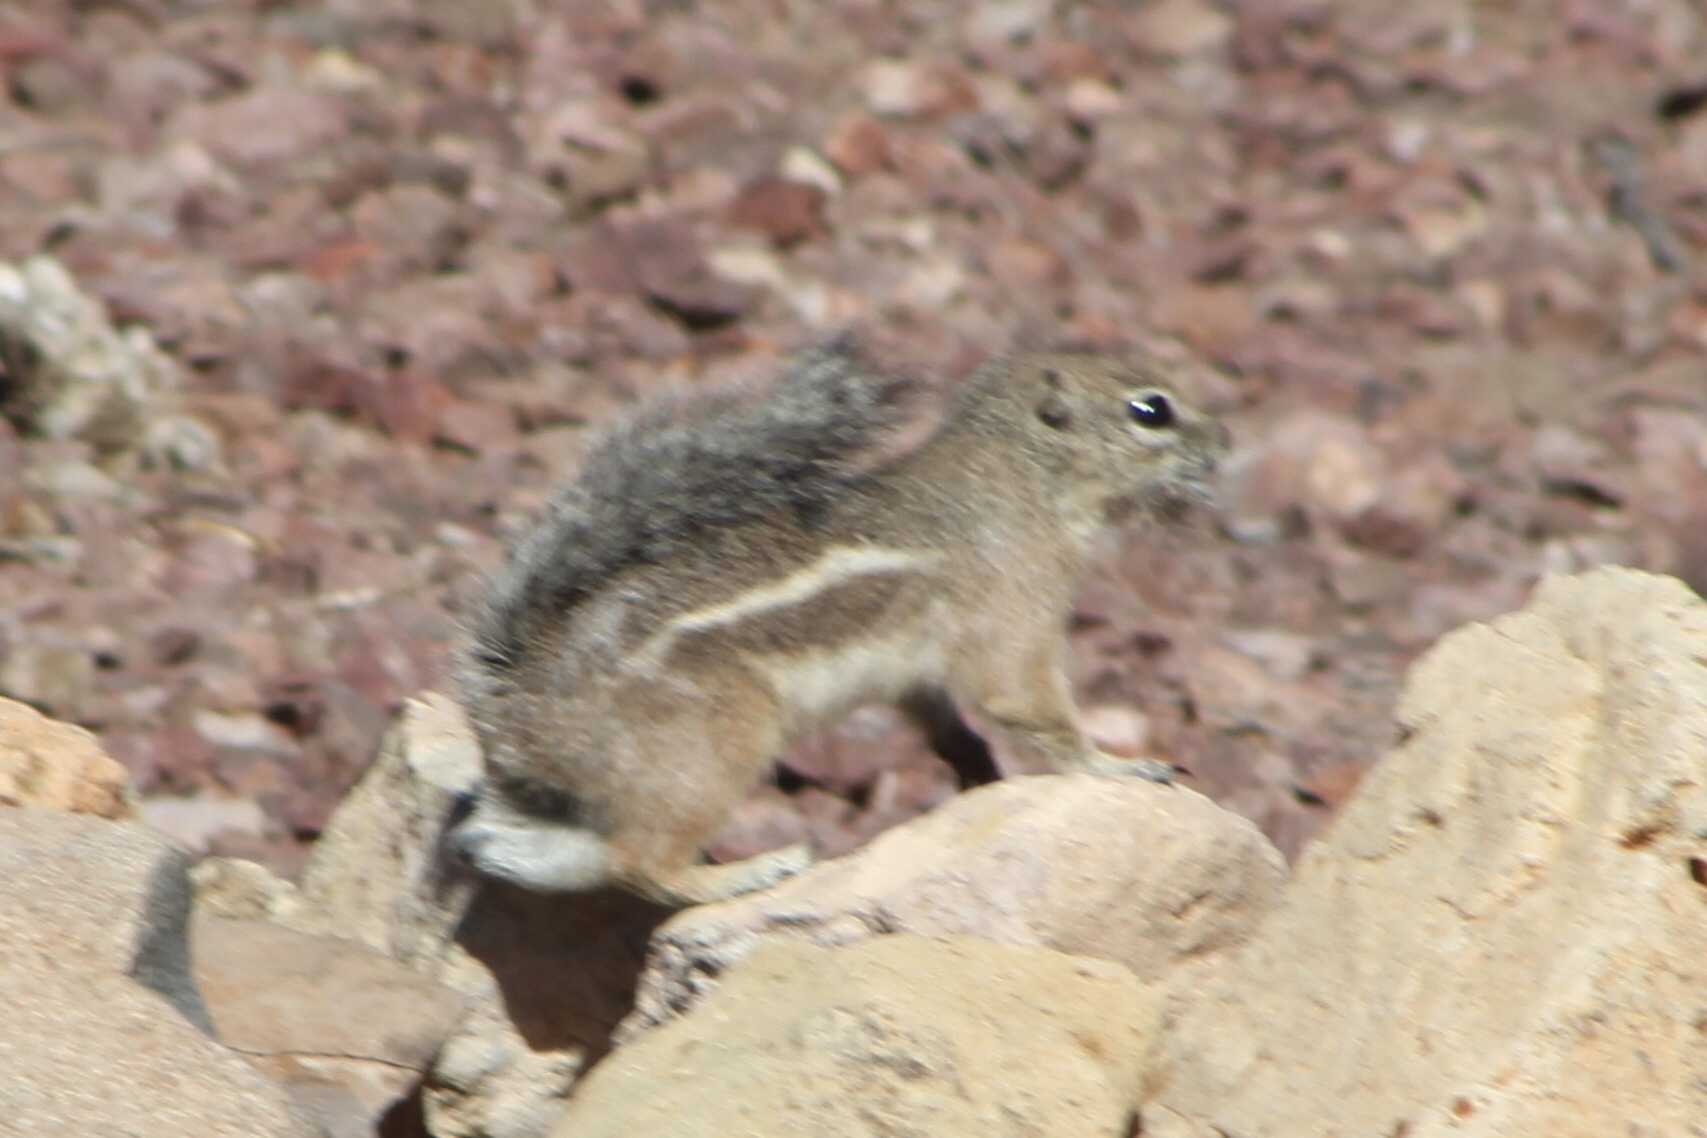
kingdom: Animalia
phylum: Chordata
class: Mammalia
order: Rodentia
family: Sciuridae
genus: Ammospermophilus
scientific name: Ammospermophilus harrisii
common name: Harris's antelope squirrel
